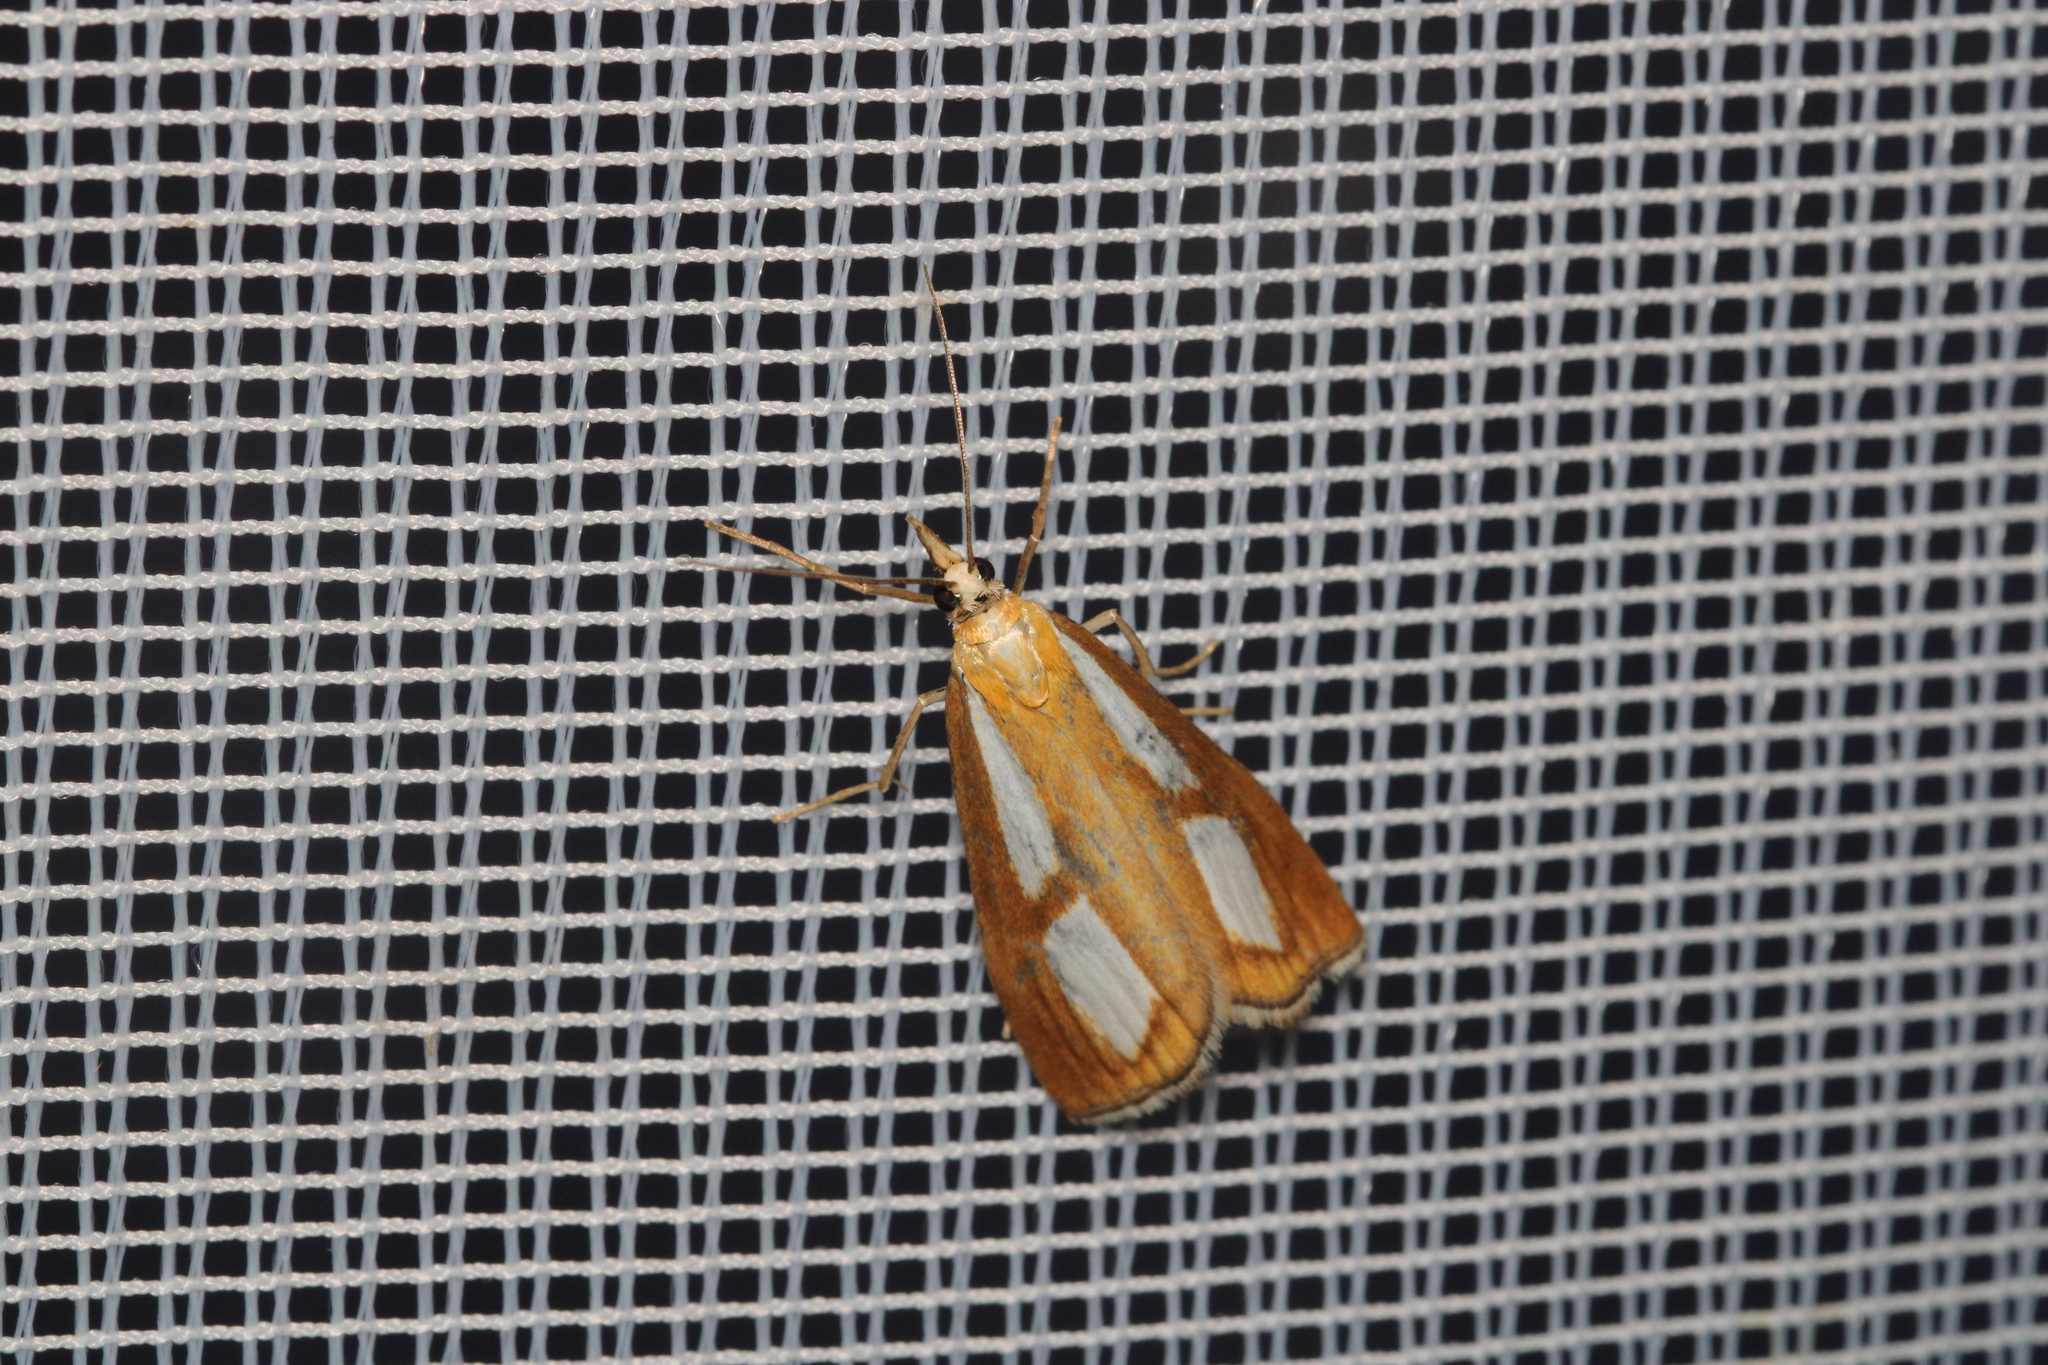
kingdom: Animalia
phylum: Arthropoda
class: Insecta
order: Lepidoptera
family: Crambidae
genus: Catoptria
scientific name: Catoptria conchella
